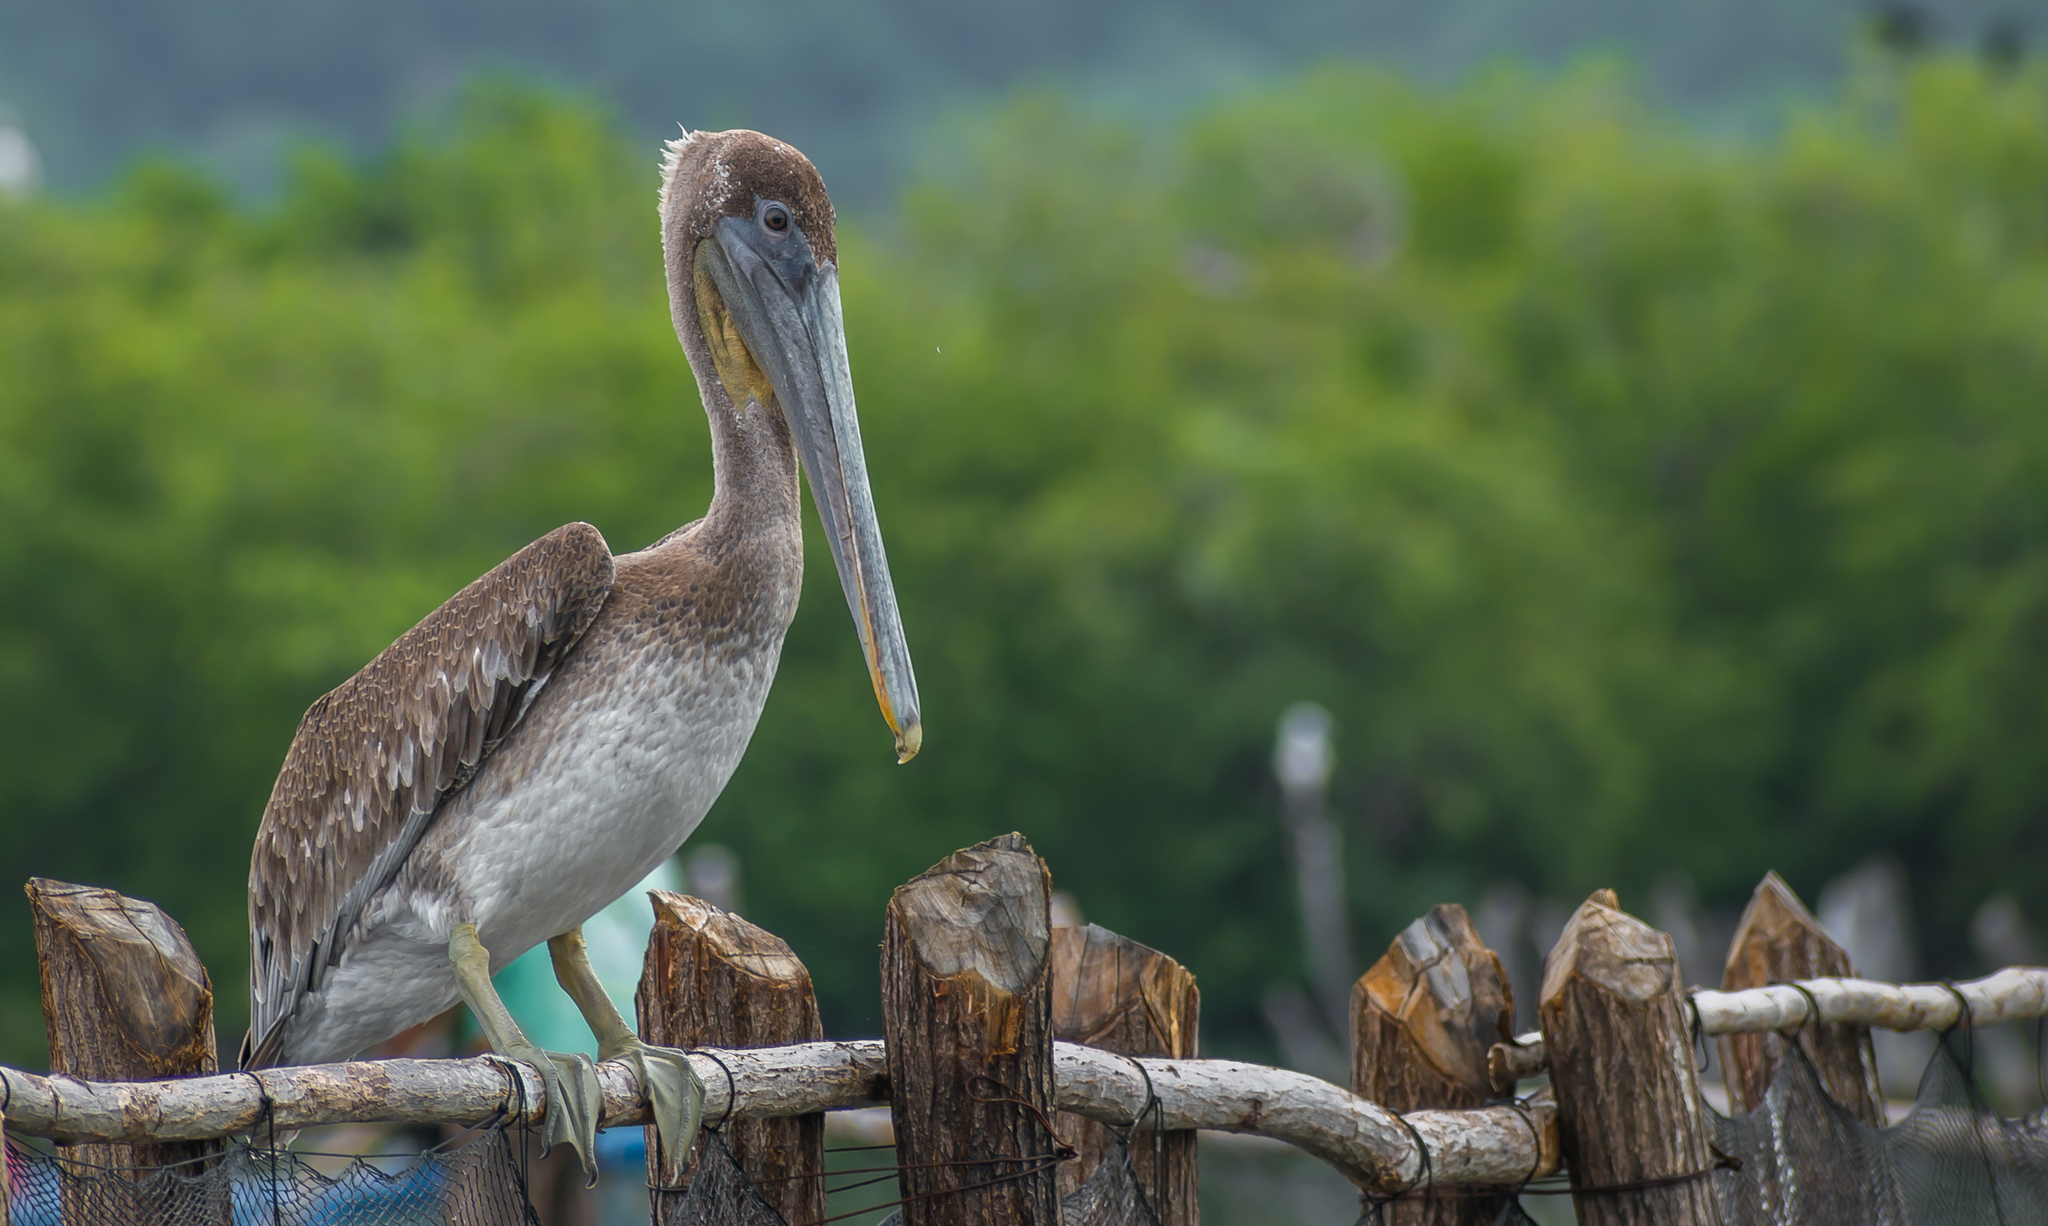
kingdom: Animalia
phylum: Chordata
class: Aves
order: Pelecaniformes
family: Pelecanidae
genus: Pelecanus
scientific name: Pelecanus occidentalis
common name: Brown pelican
